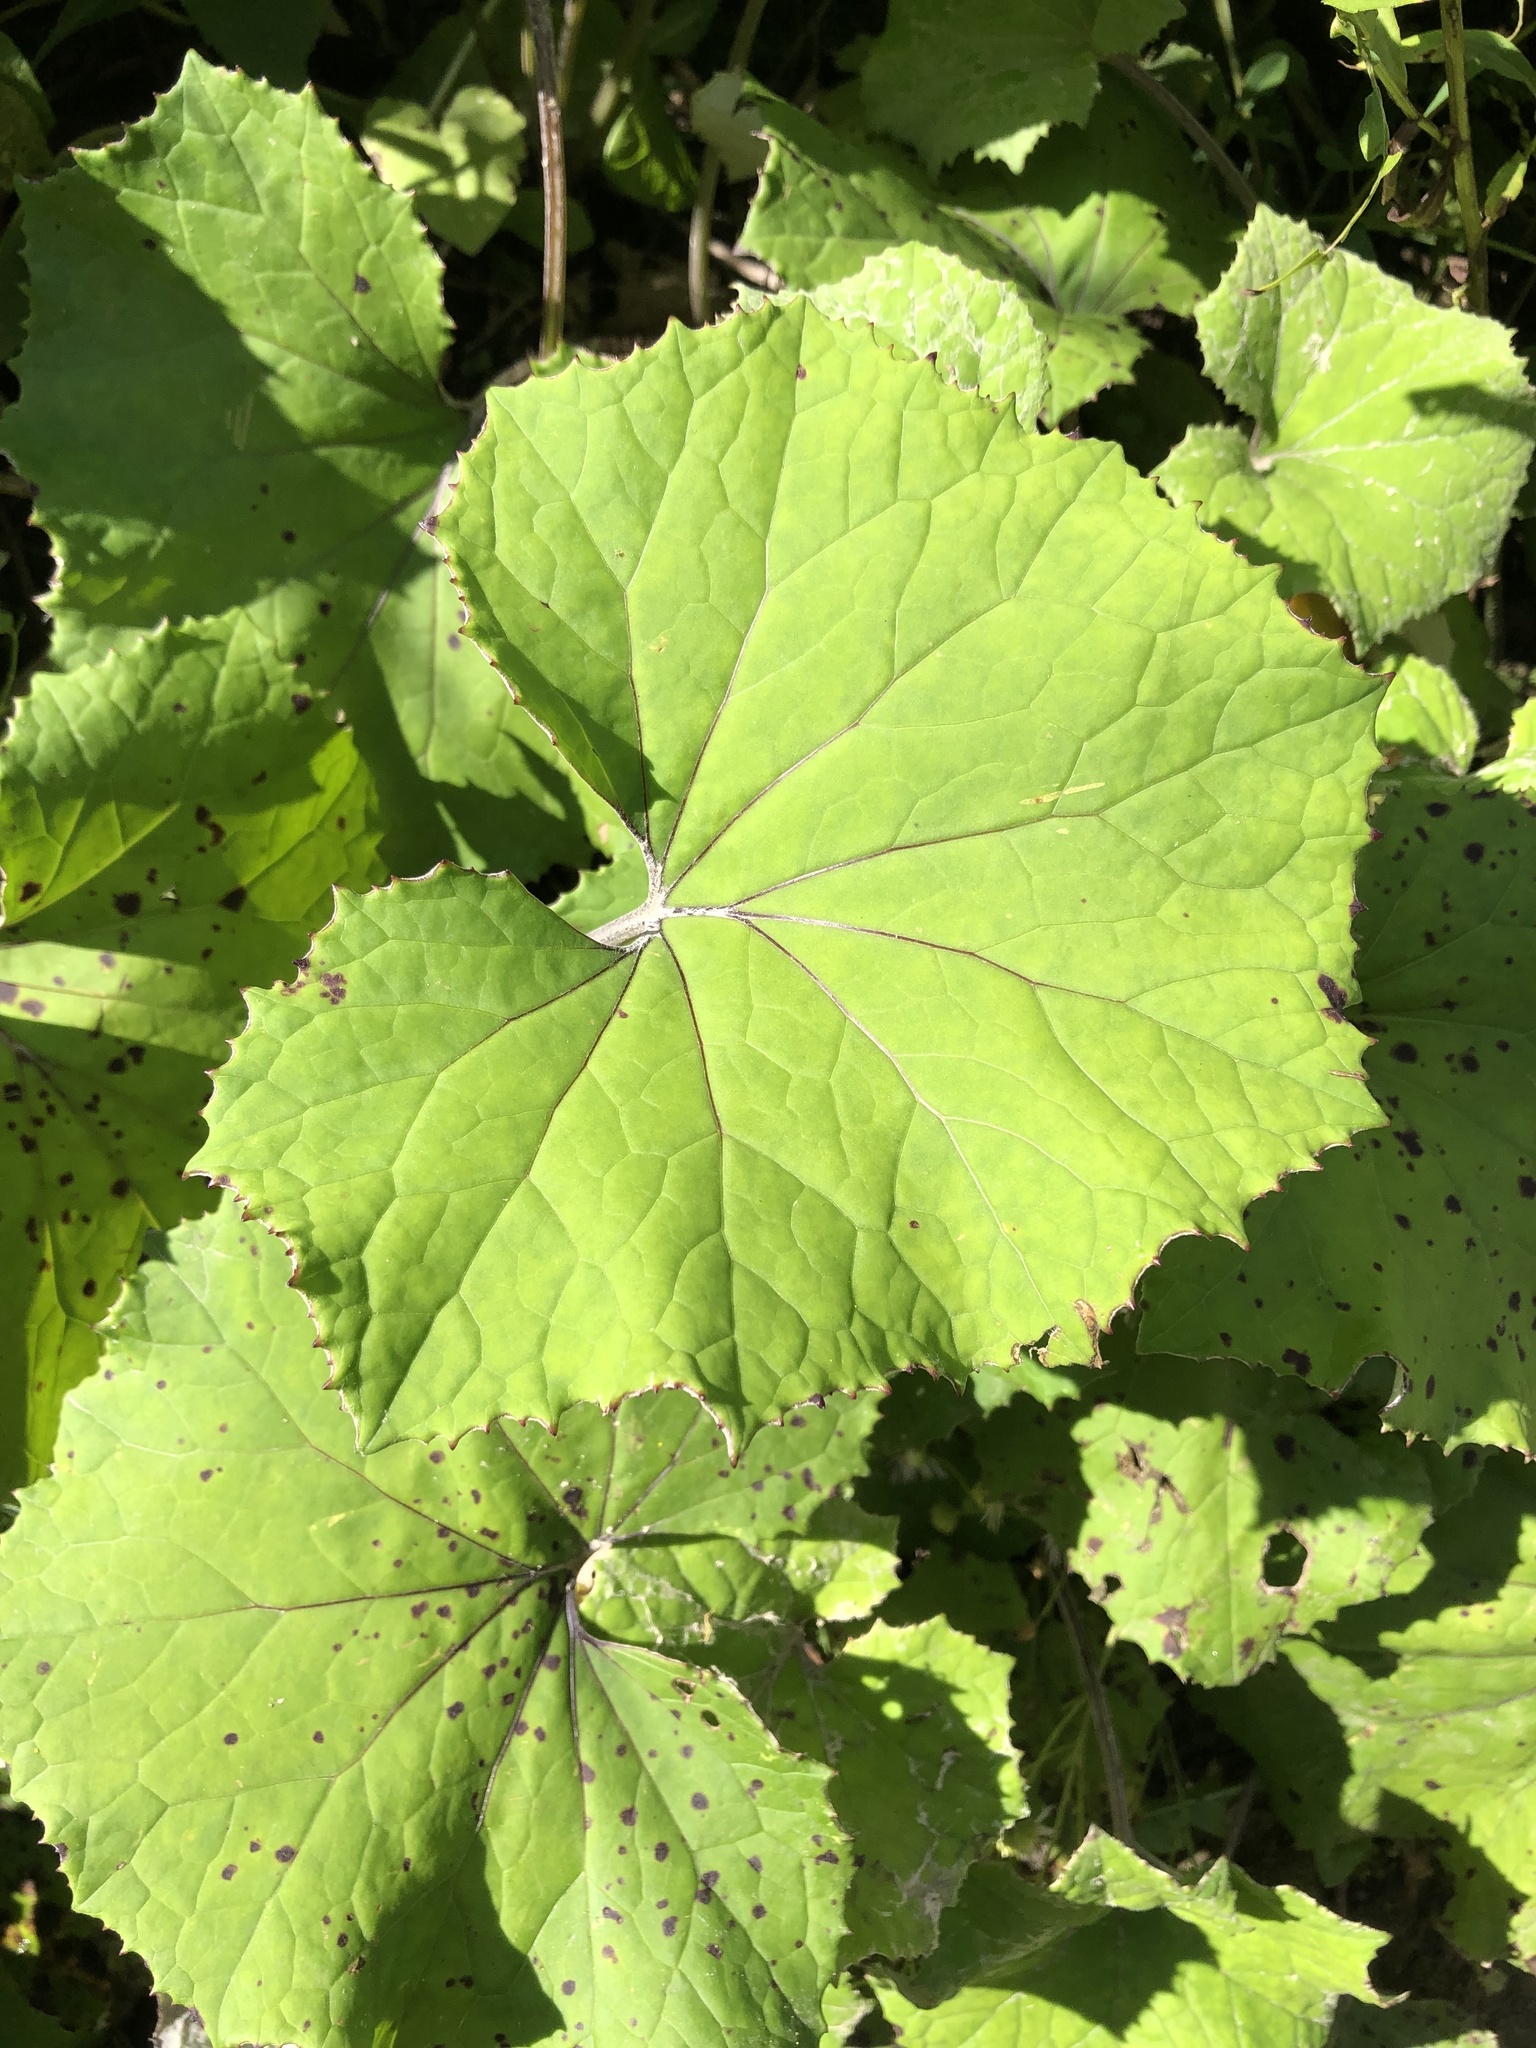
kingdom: Plantae
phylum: Tracheophyta
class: Magnoliopsida
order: Asterales
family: Asteraceae
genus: Tussilago
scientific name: Tussilago farfara
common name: Coltsfoot
